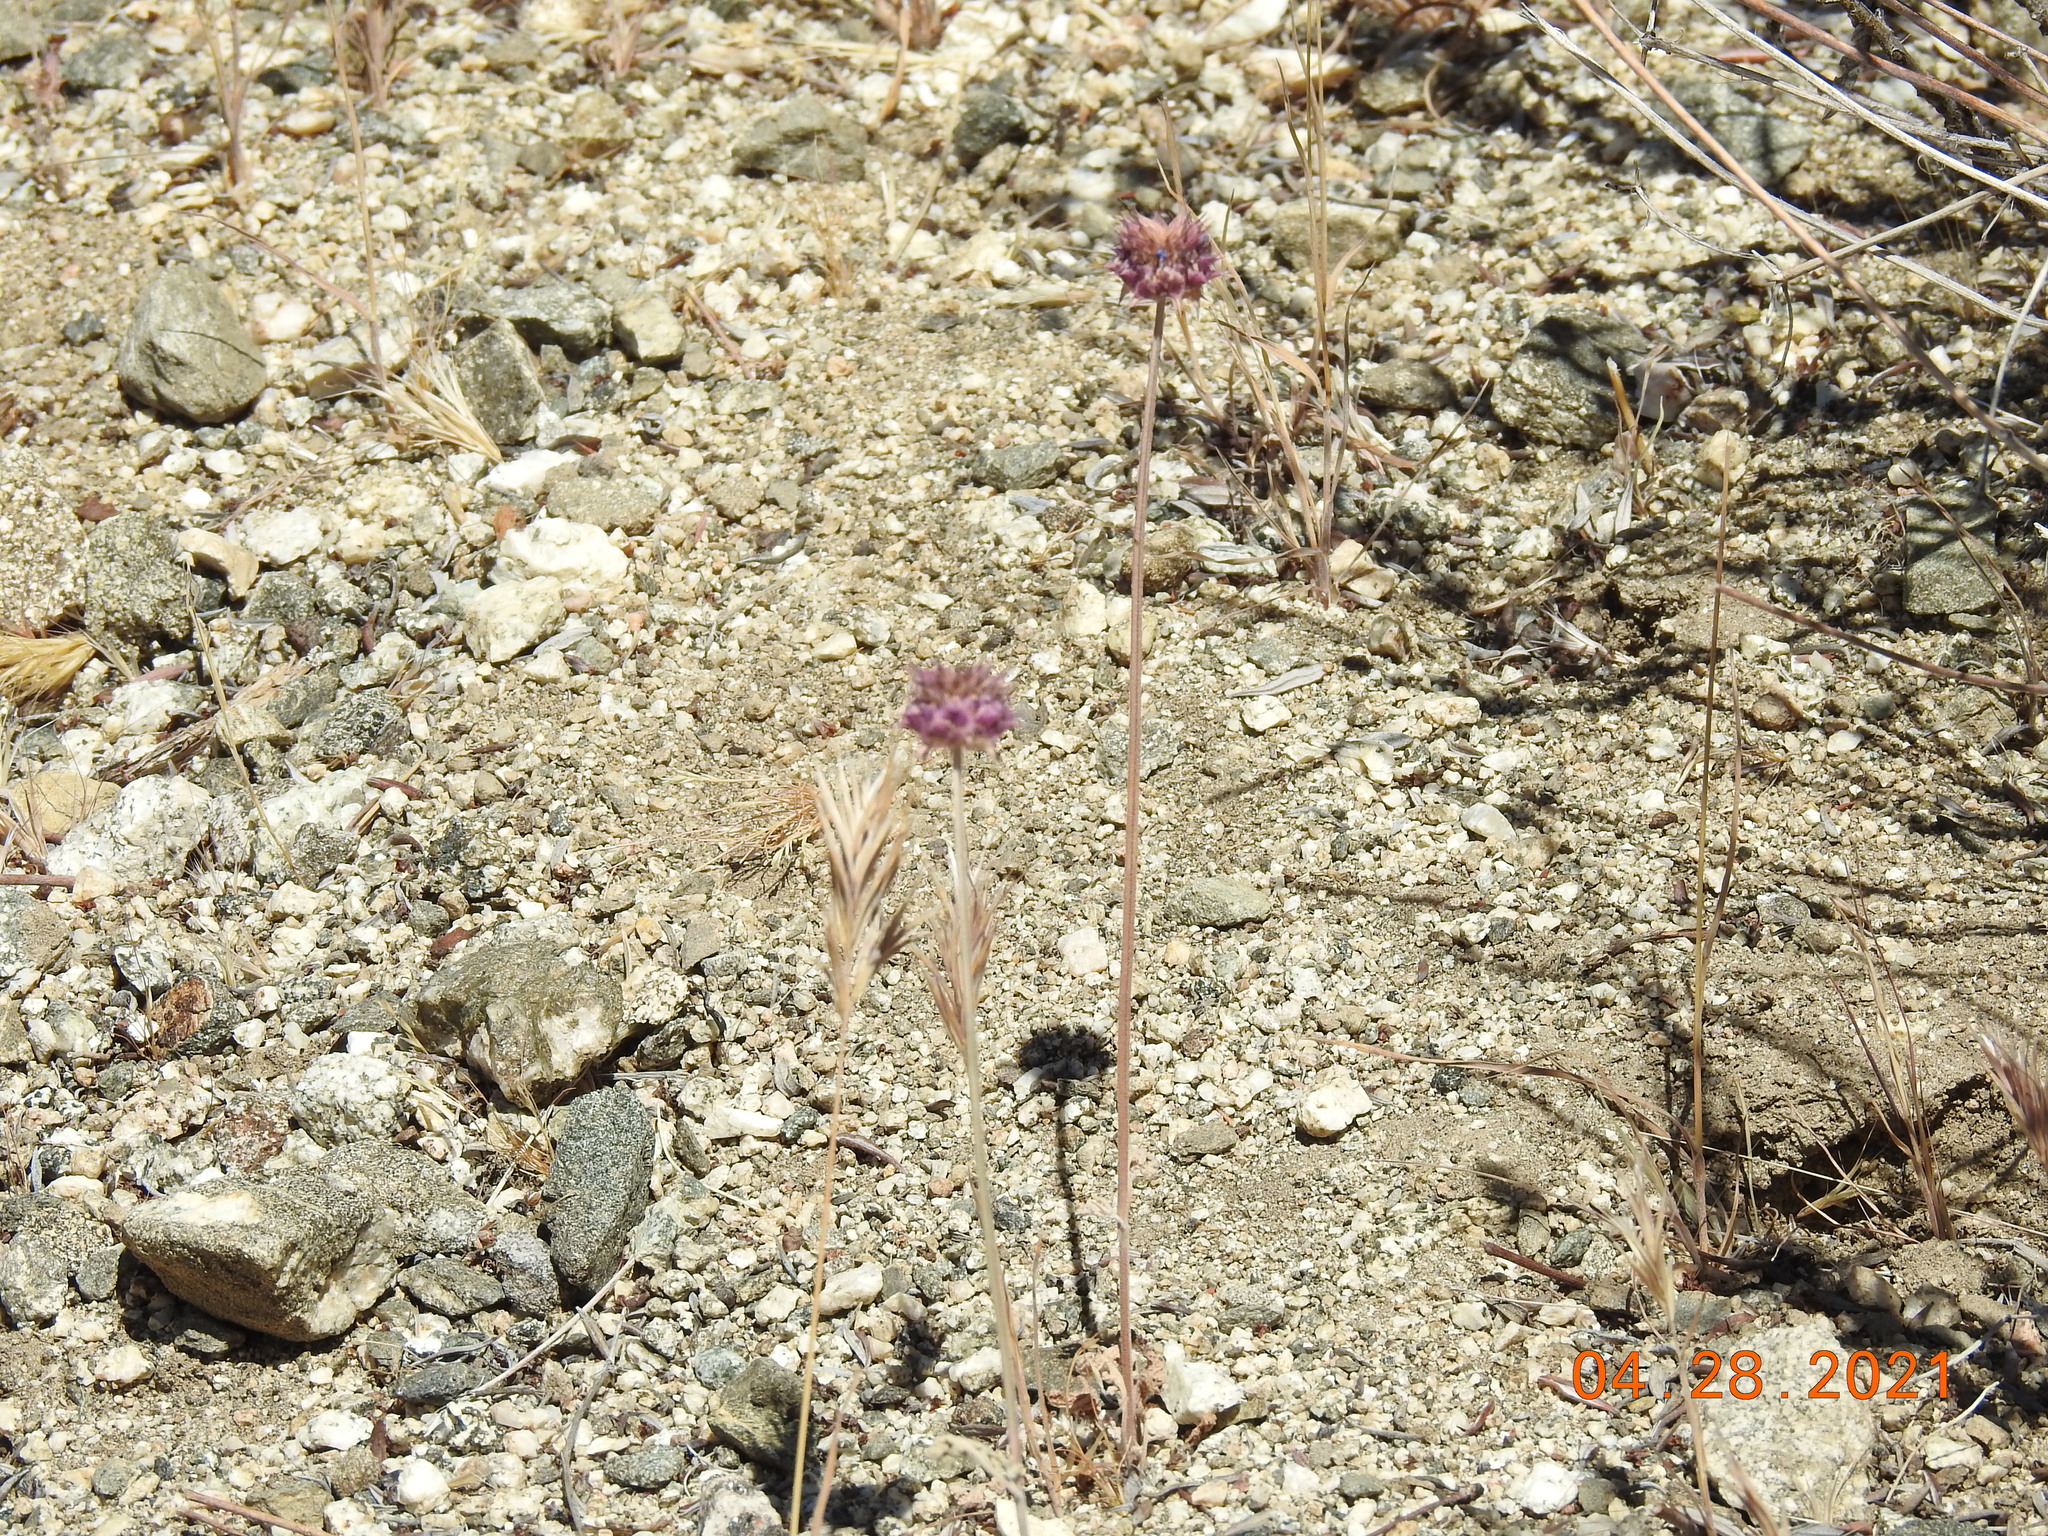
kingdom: Plantae
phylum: Tracheophyta
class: Magnoliopsida
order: Lamiales
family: Lamiaceae
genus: Salvia
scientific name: Salvia columbariae
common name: Chia
